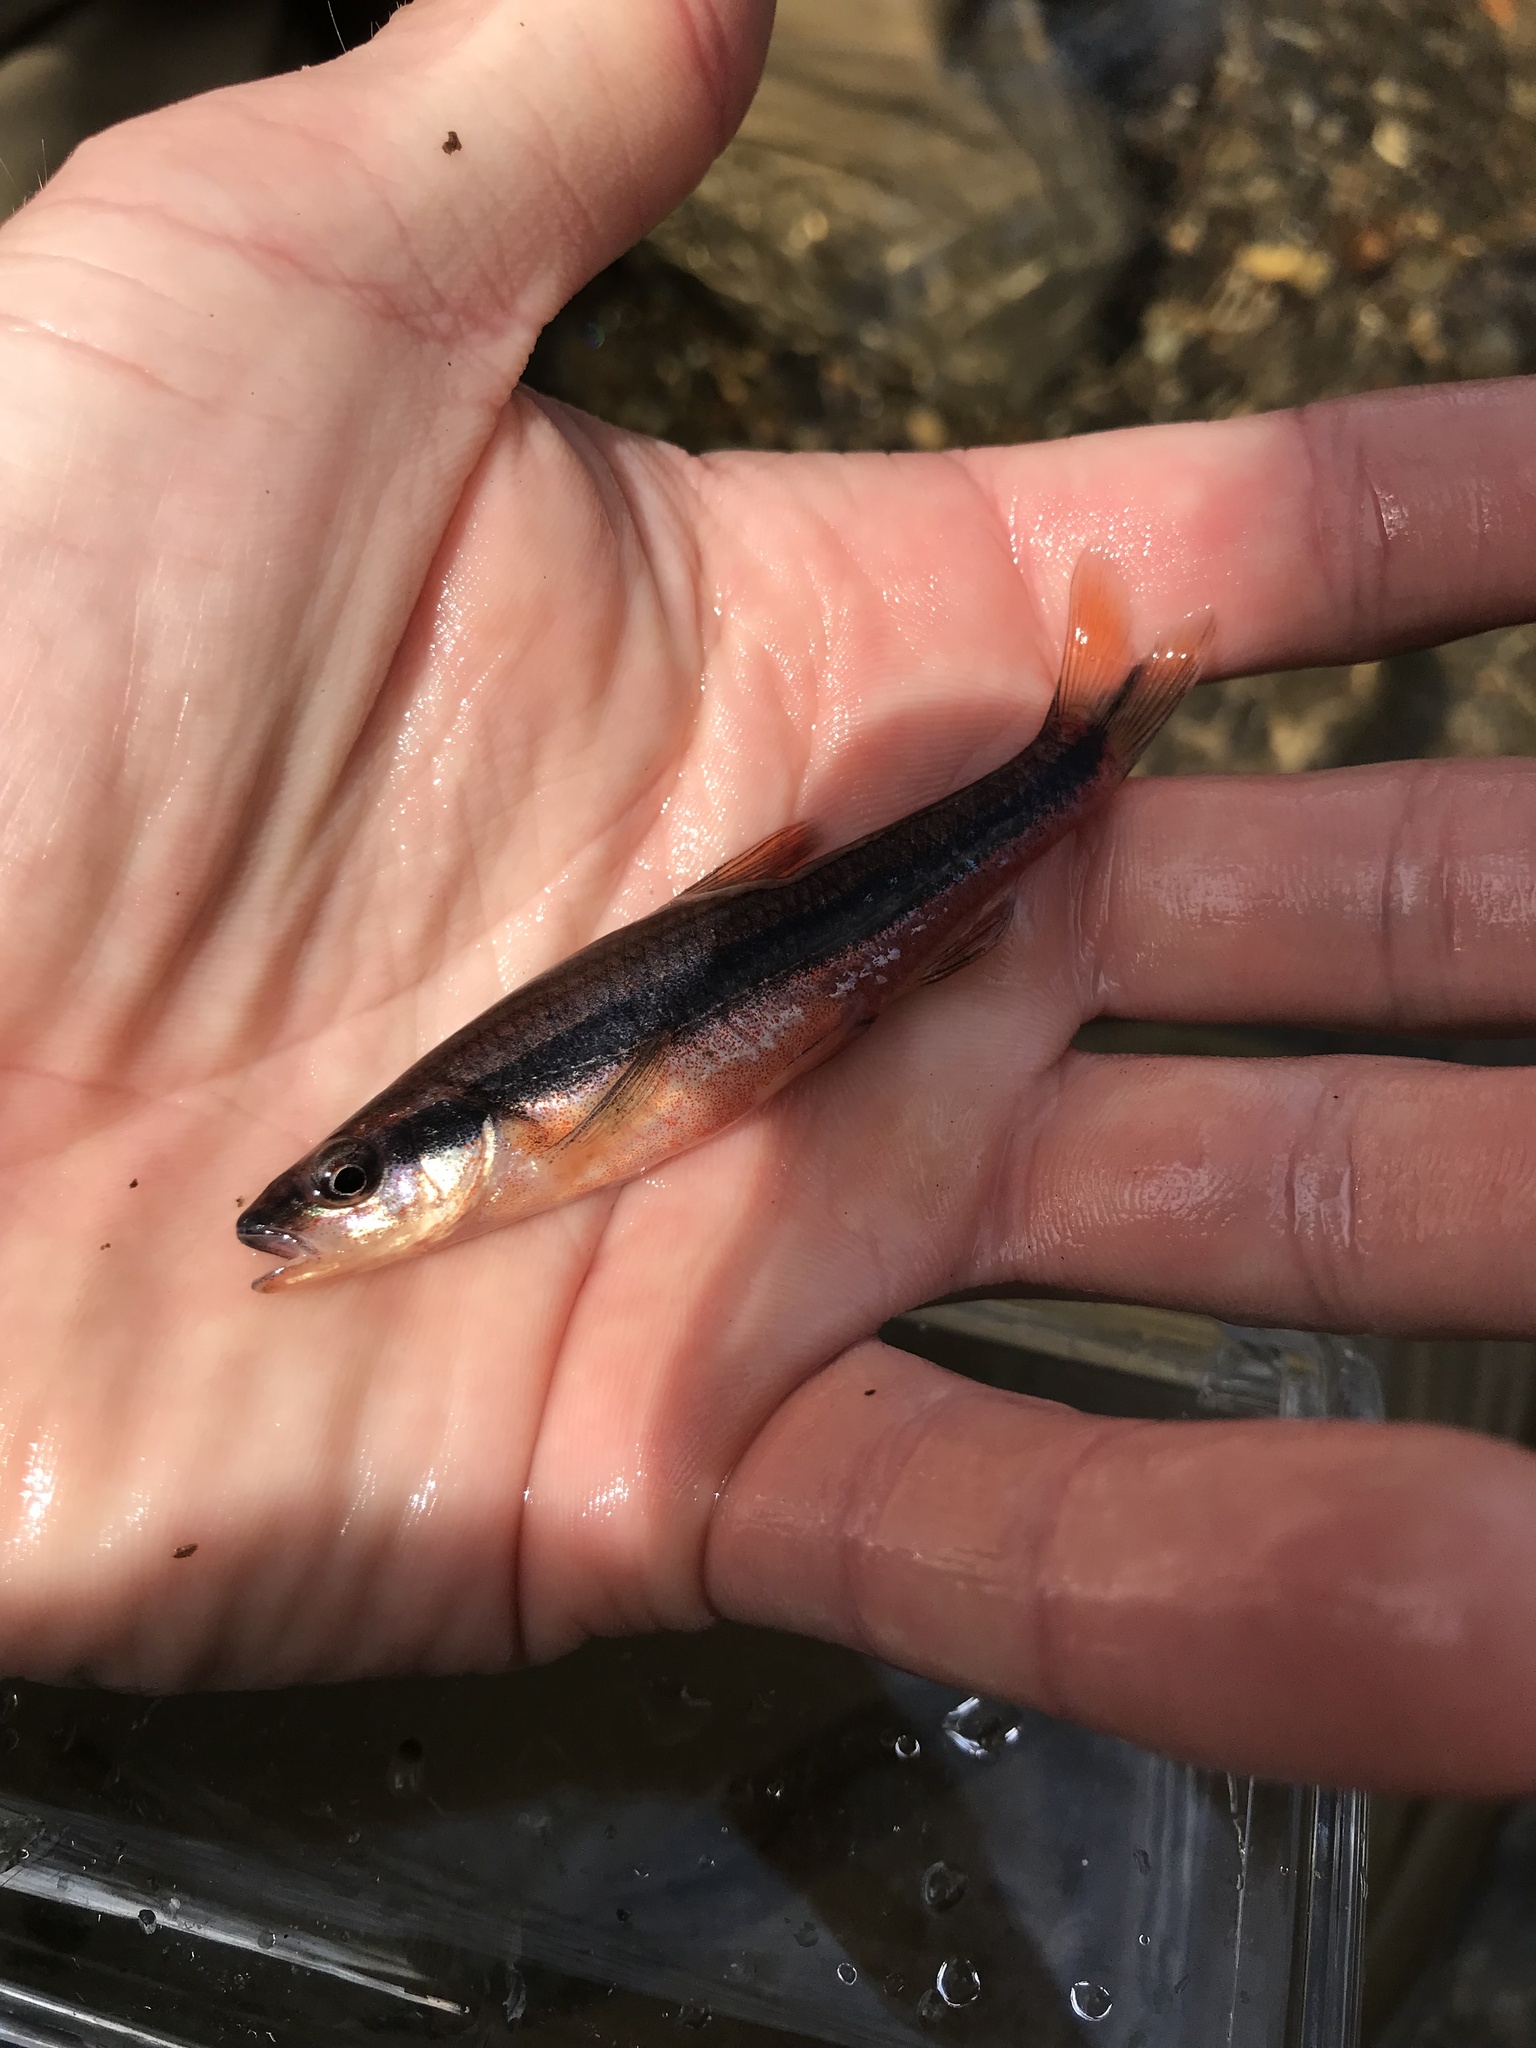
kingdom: Animalia
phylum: Chordata
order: Cypriniformes
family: Cyprinidae
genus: Notropis
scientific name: Notropis lutipinnis
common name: Yellowfin shiner
